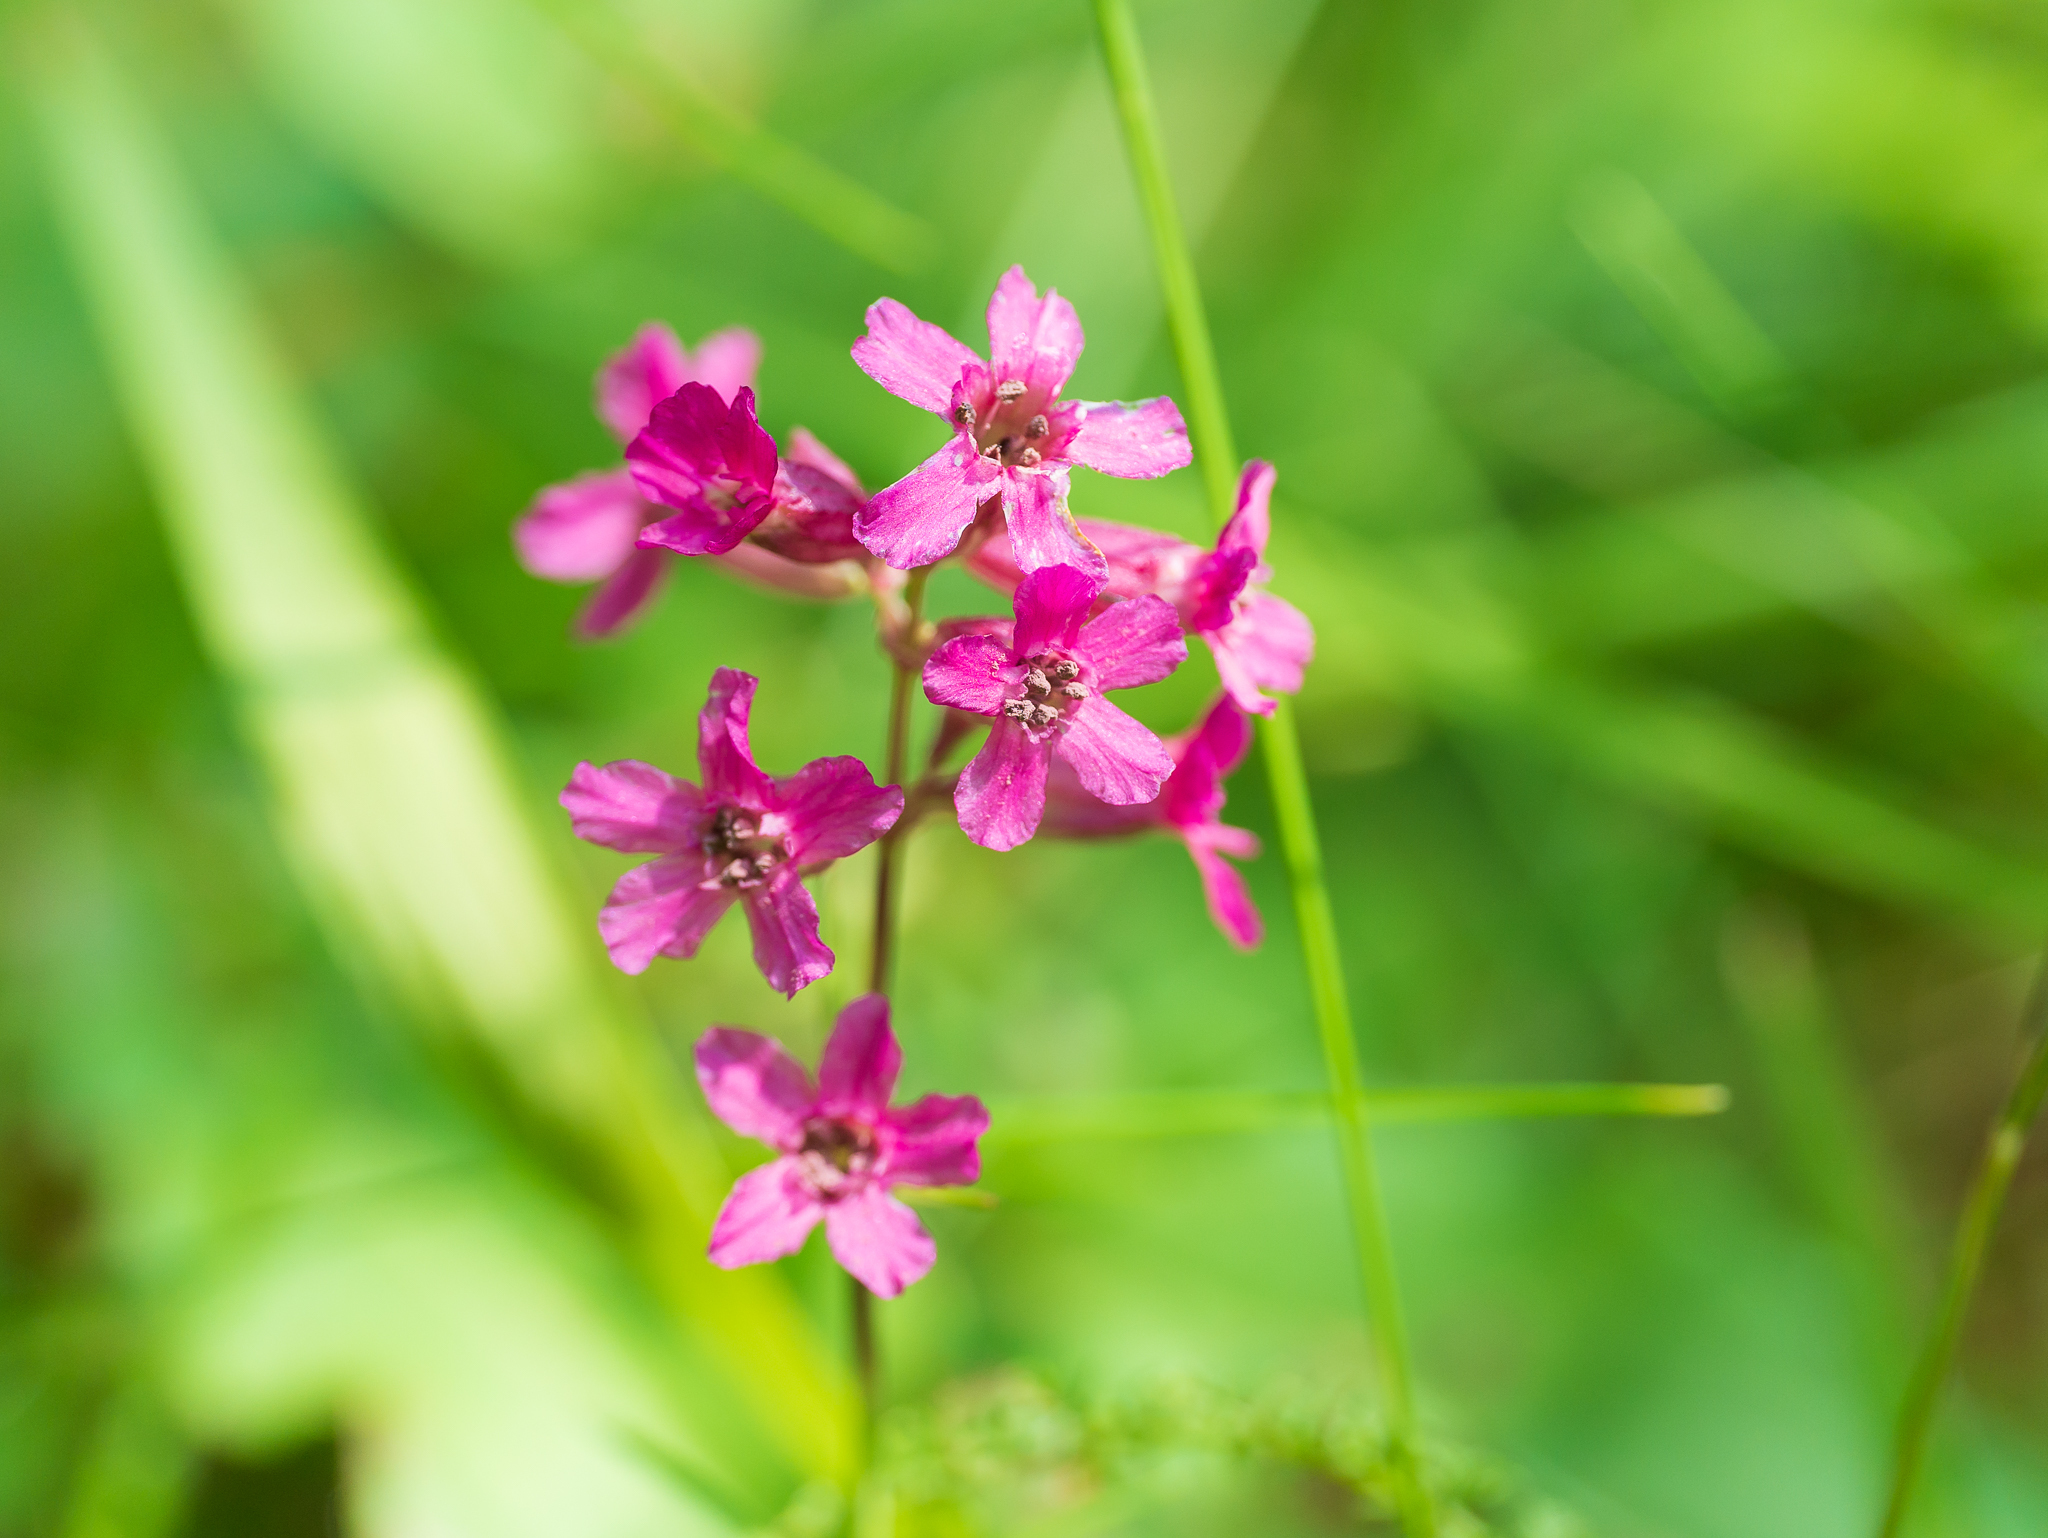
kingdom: Plantae
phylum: Tracheophyta
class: Magnoliopsida
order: Caryophyllales
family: Caryophyllaceae
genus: Viscaria
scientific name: Viscaria vulgaris
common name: Clammy campion
